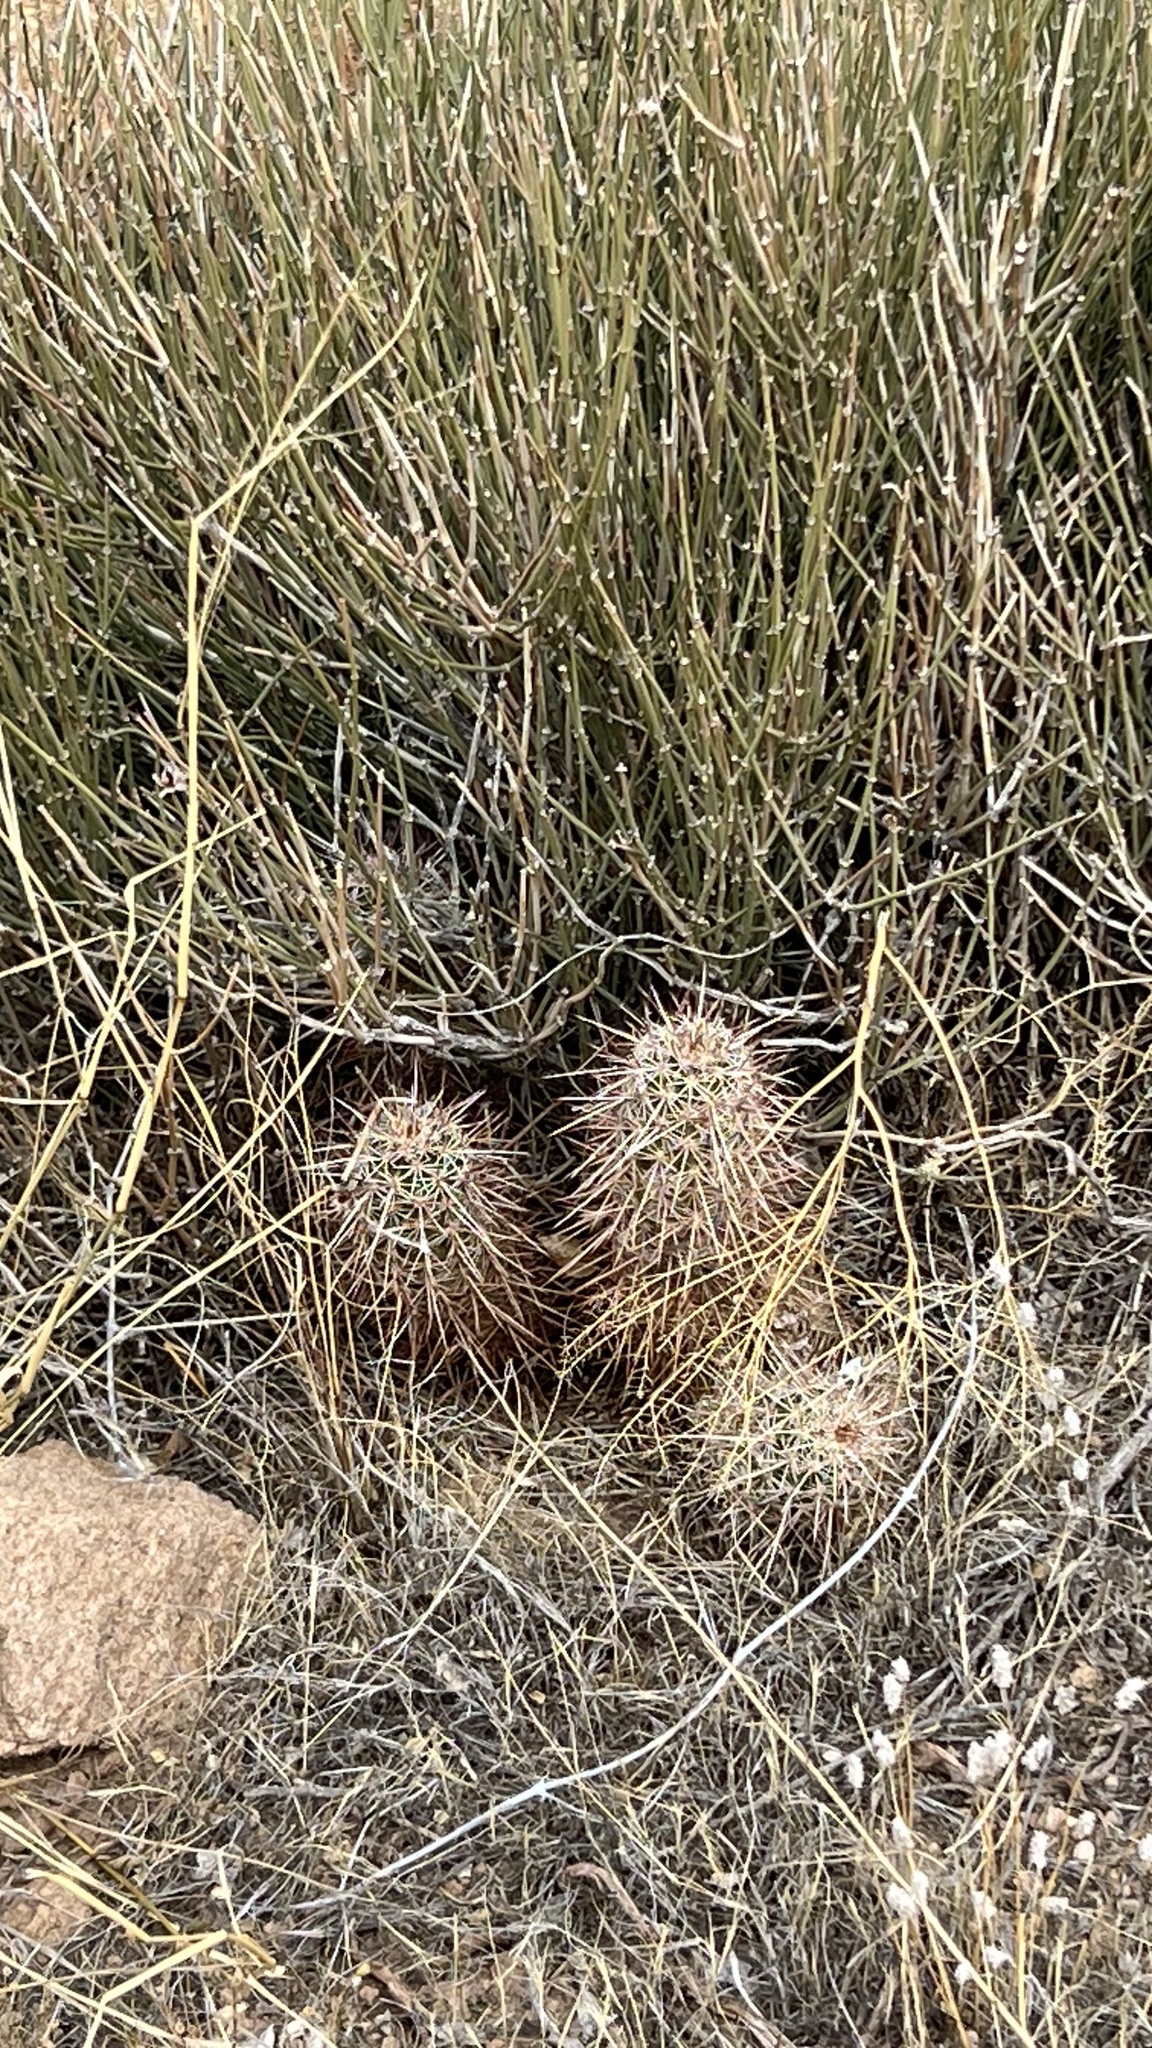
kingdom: Plantae
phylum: Tracheophyta
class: Magnoliopsida
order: Caryophyllales
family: Cactaceae
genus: Echinocereus
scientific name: Echinocereus engelmannii
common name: Engelmann's hedgehog cactus
